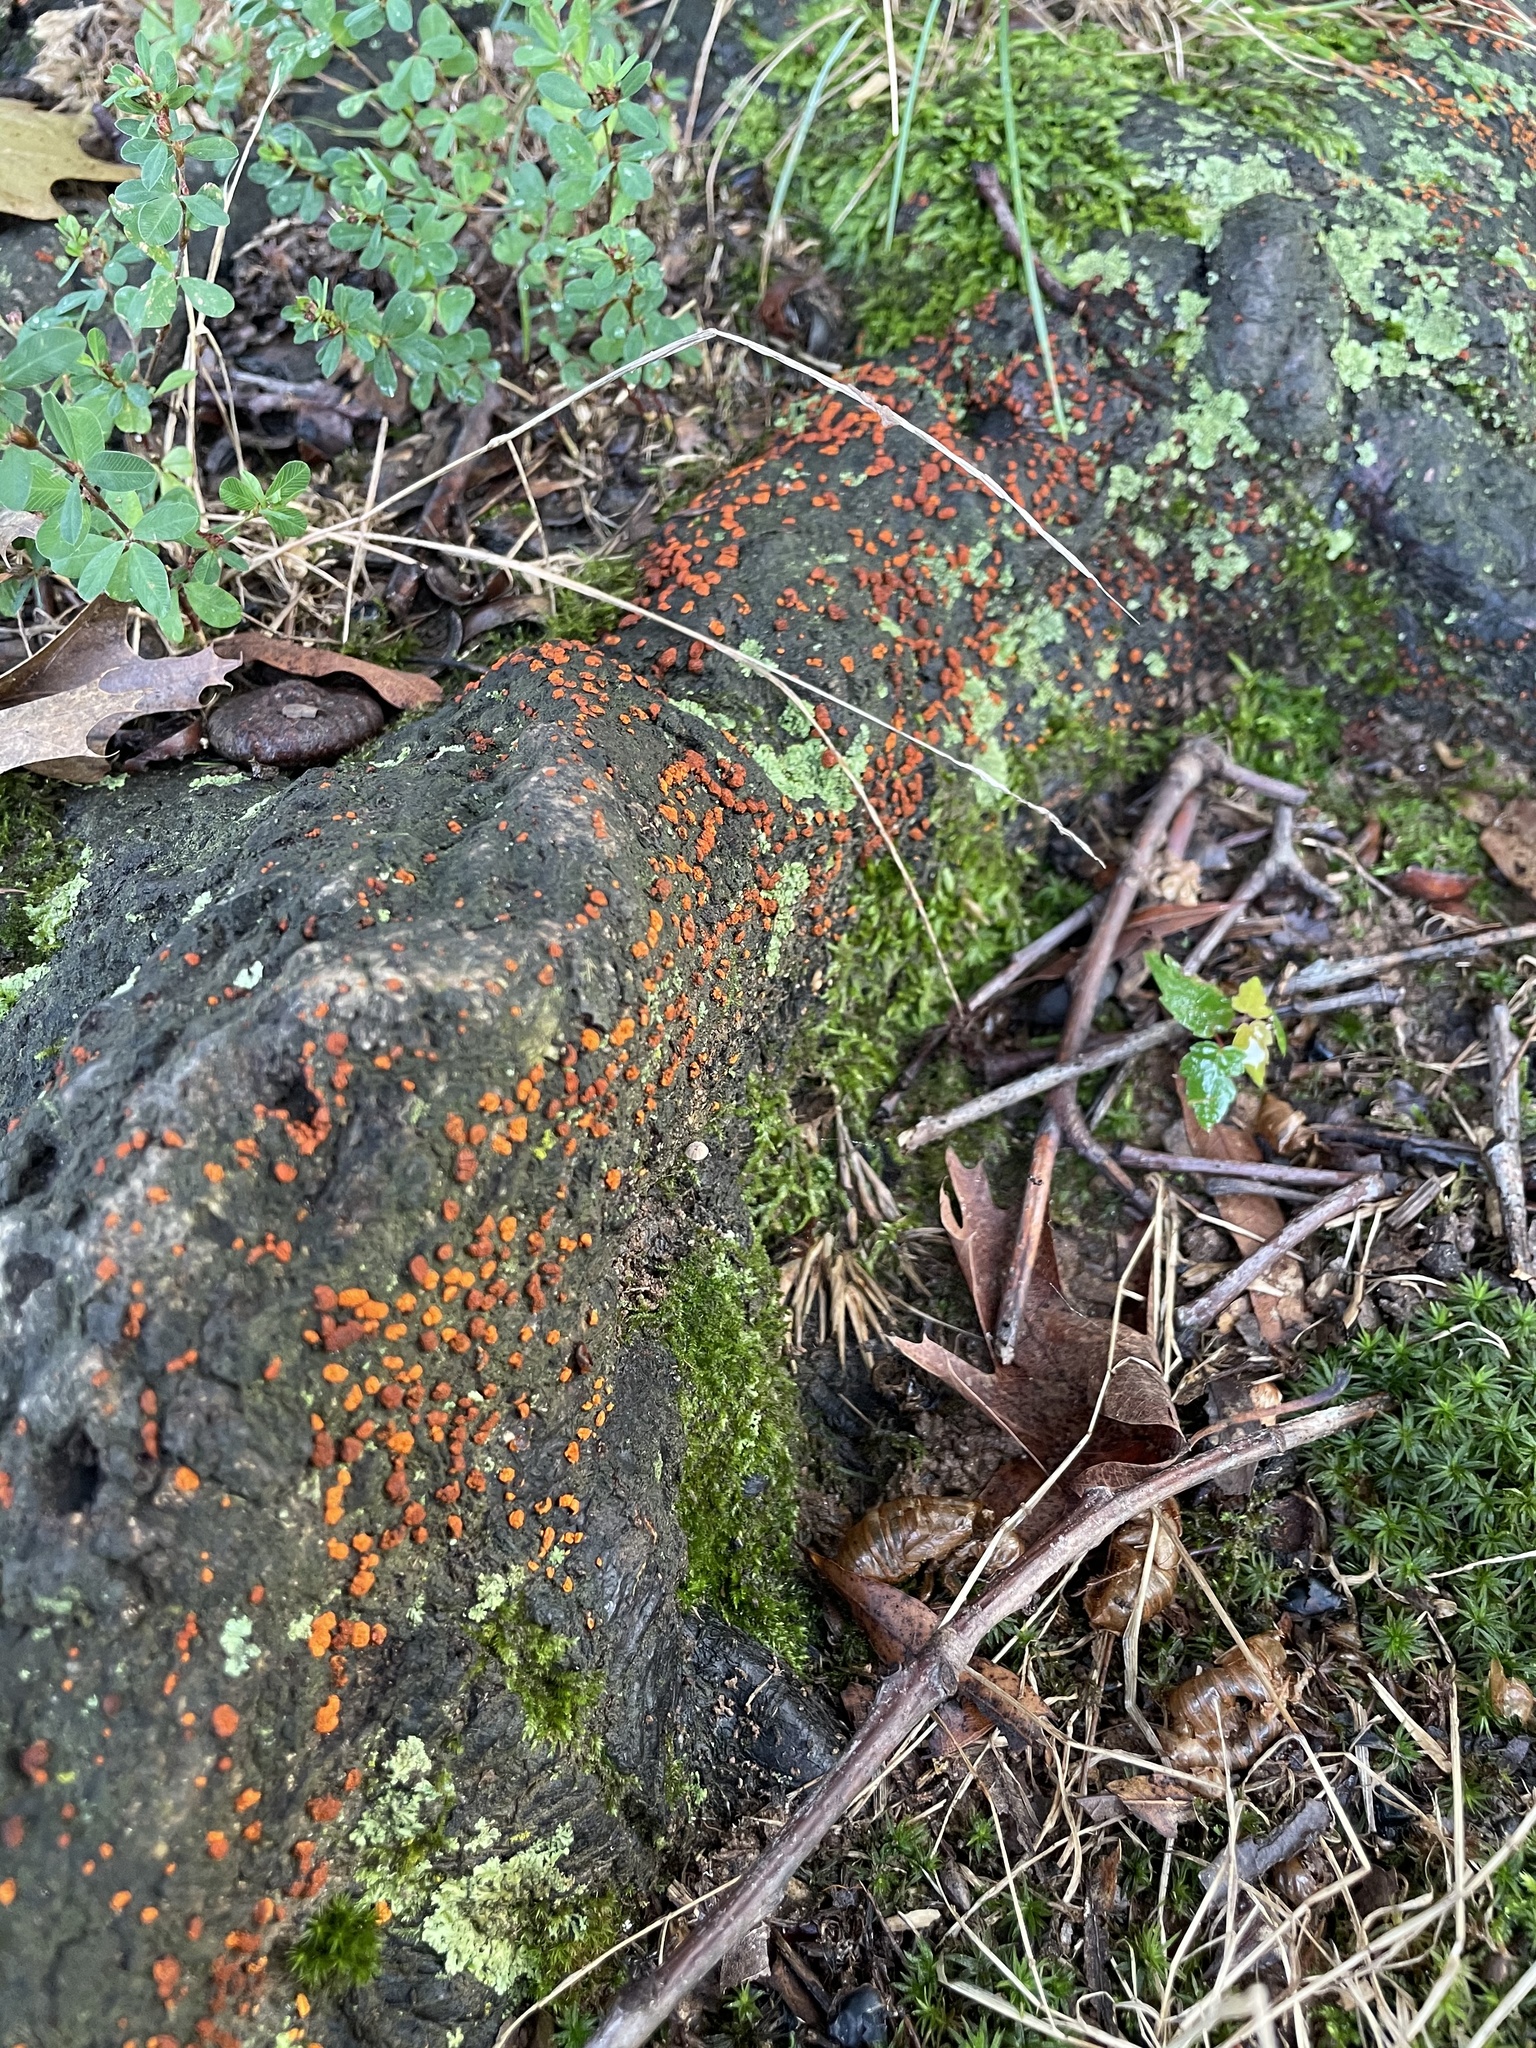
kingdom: Fungi
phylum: Ascomycota
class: Sordariomycetes
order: Diaporthales
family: Cryphonectriaceae
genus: Amphilogia
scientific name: Amphilogia gyrosa
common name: Orange hobnail canker
